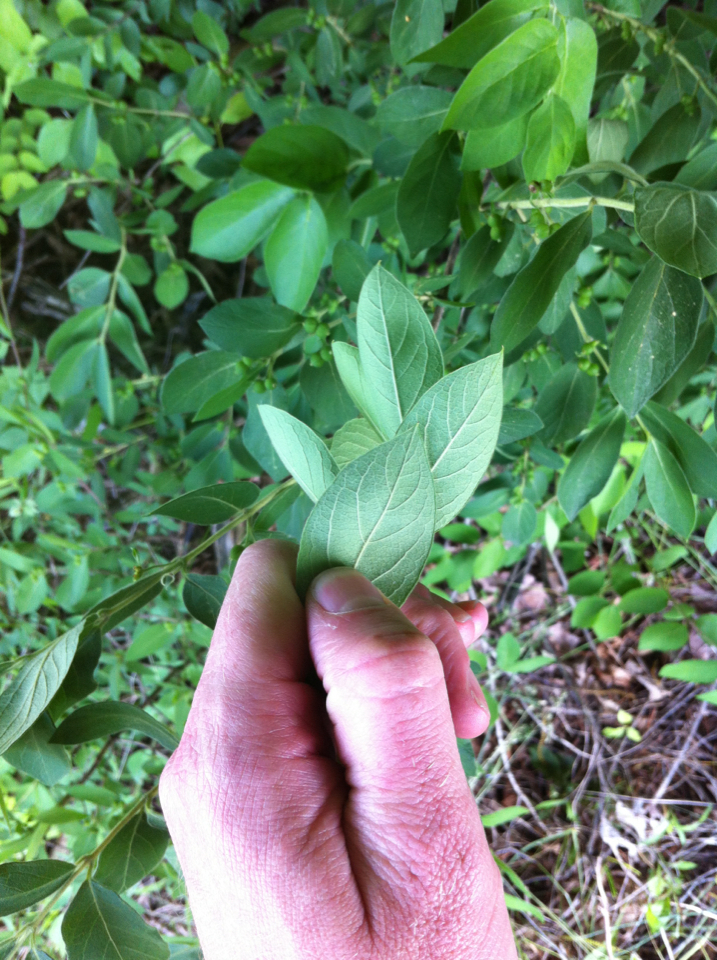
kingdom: Plantae
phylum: Tracheophyta
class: Magnoliopsida
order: Dipsacales
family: Caprifoliaceae
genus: Lonicera
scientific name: Lonicera morrowii
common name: Morrow's honeysuckle
